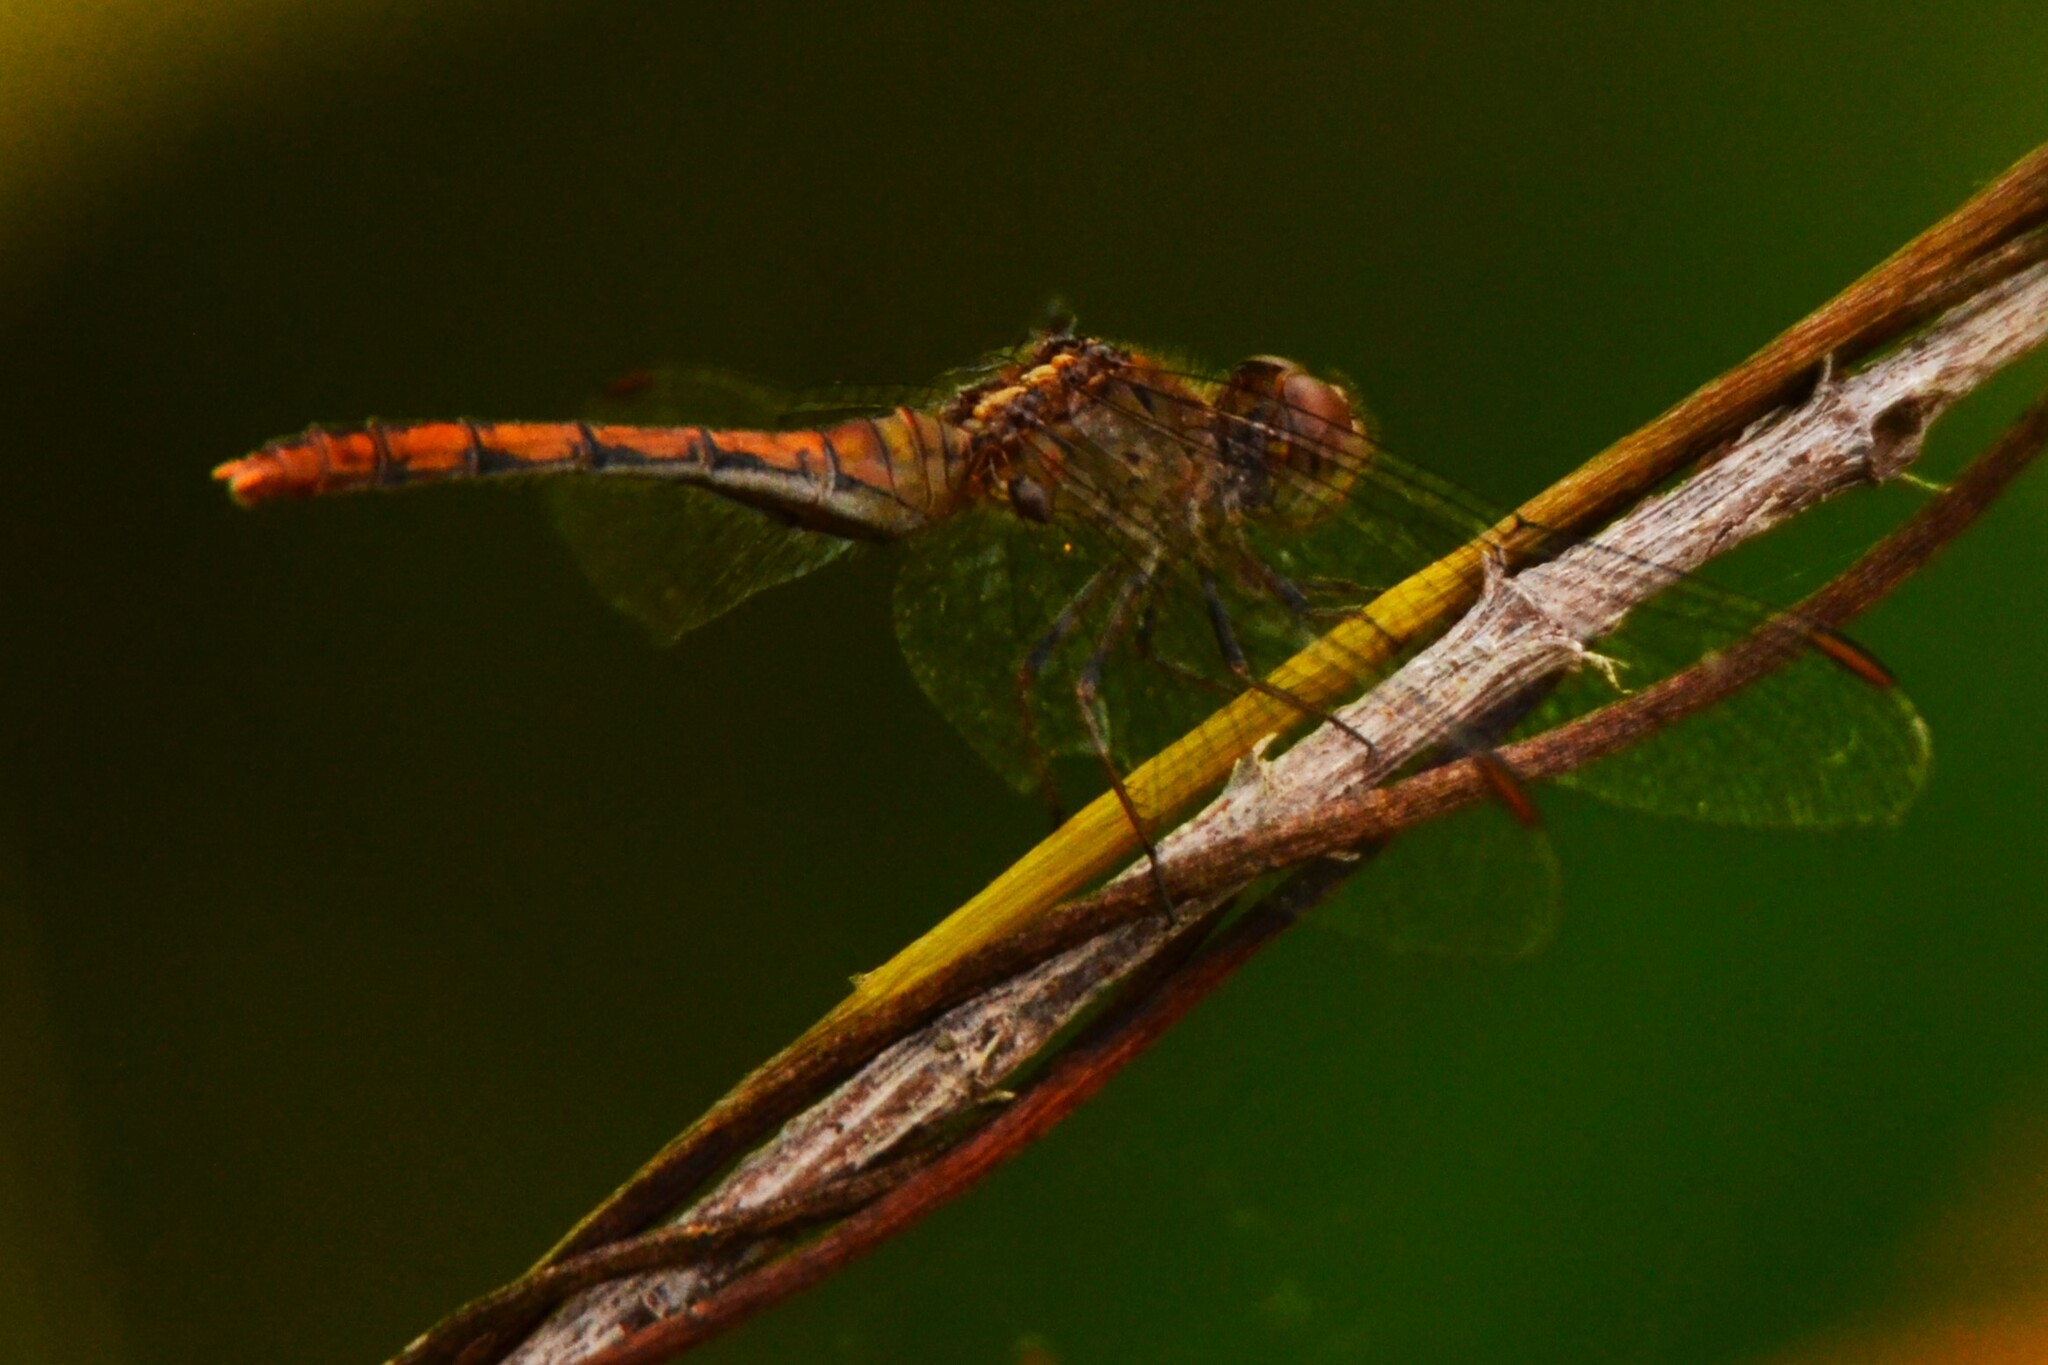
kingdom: Animalia
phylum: Arthropoda
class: Insecta
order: Odonata
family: Libellulidae
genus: Diplacodes
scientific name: Diplacodes bipunctata
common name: Red percher dragonfly
